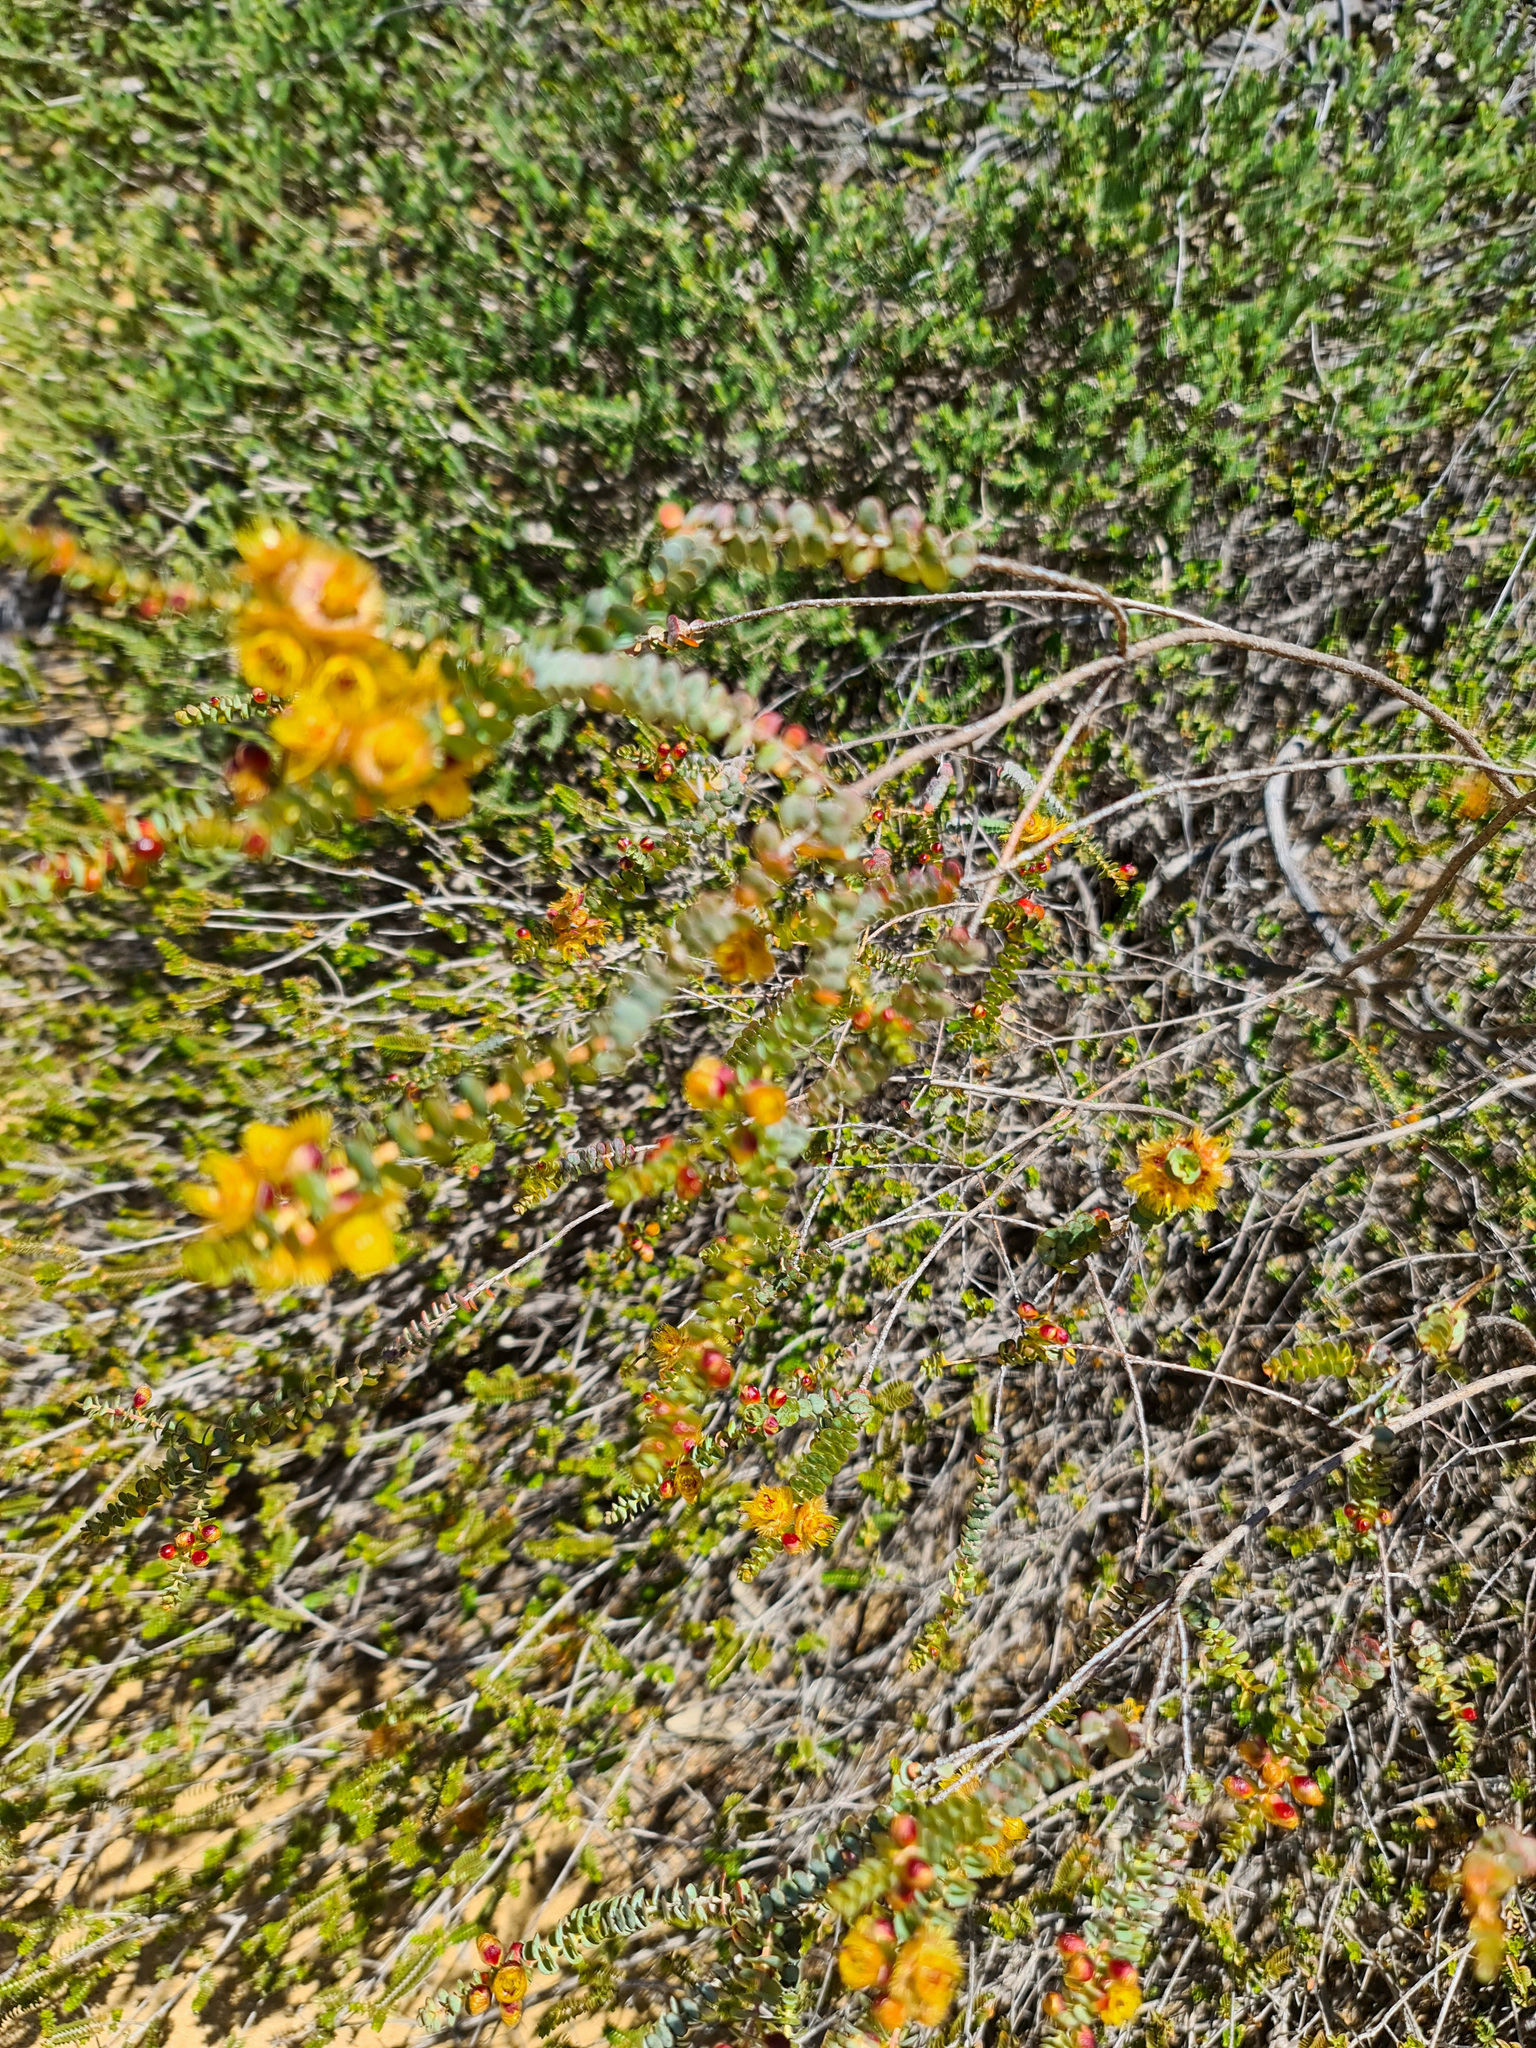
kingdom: Plantae
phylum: Tracheophyta
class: Magnoliopsida
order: Myrtales
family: Myrtaceae
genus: Verticordia
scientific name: Verticordia chrysostachys
